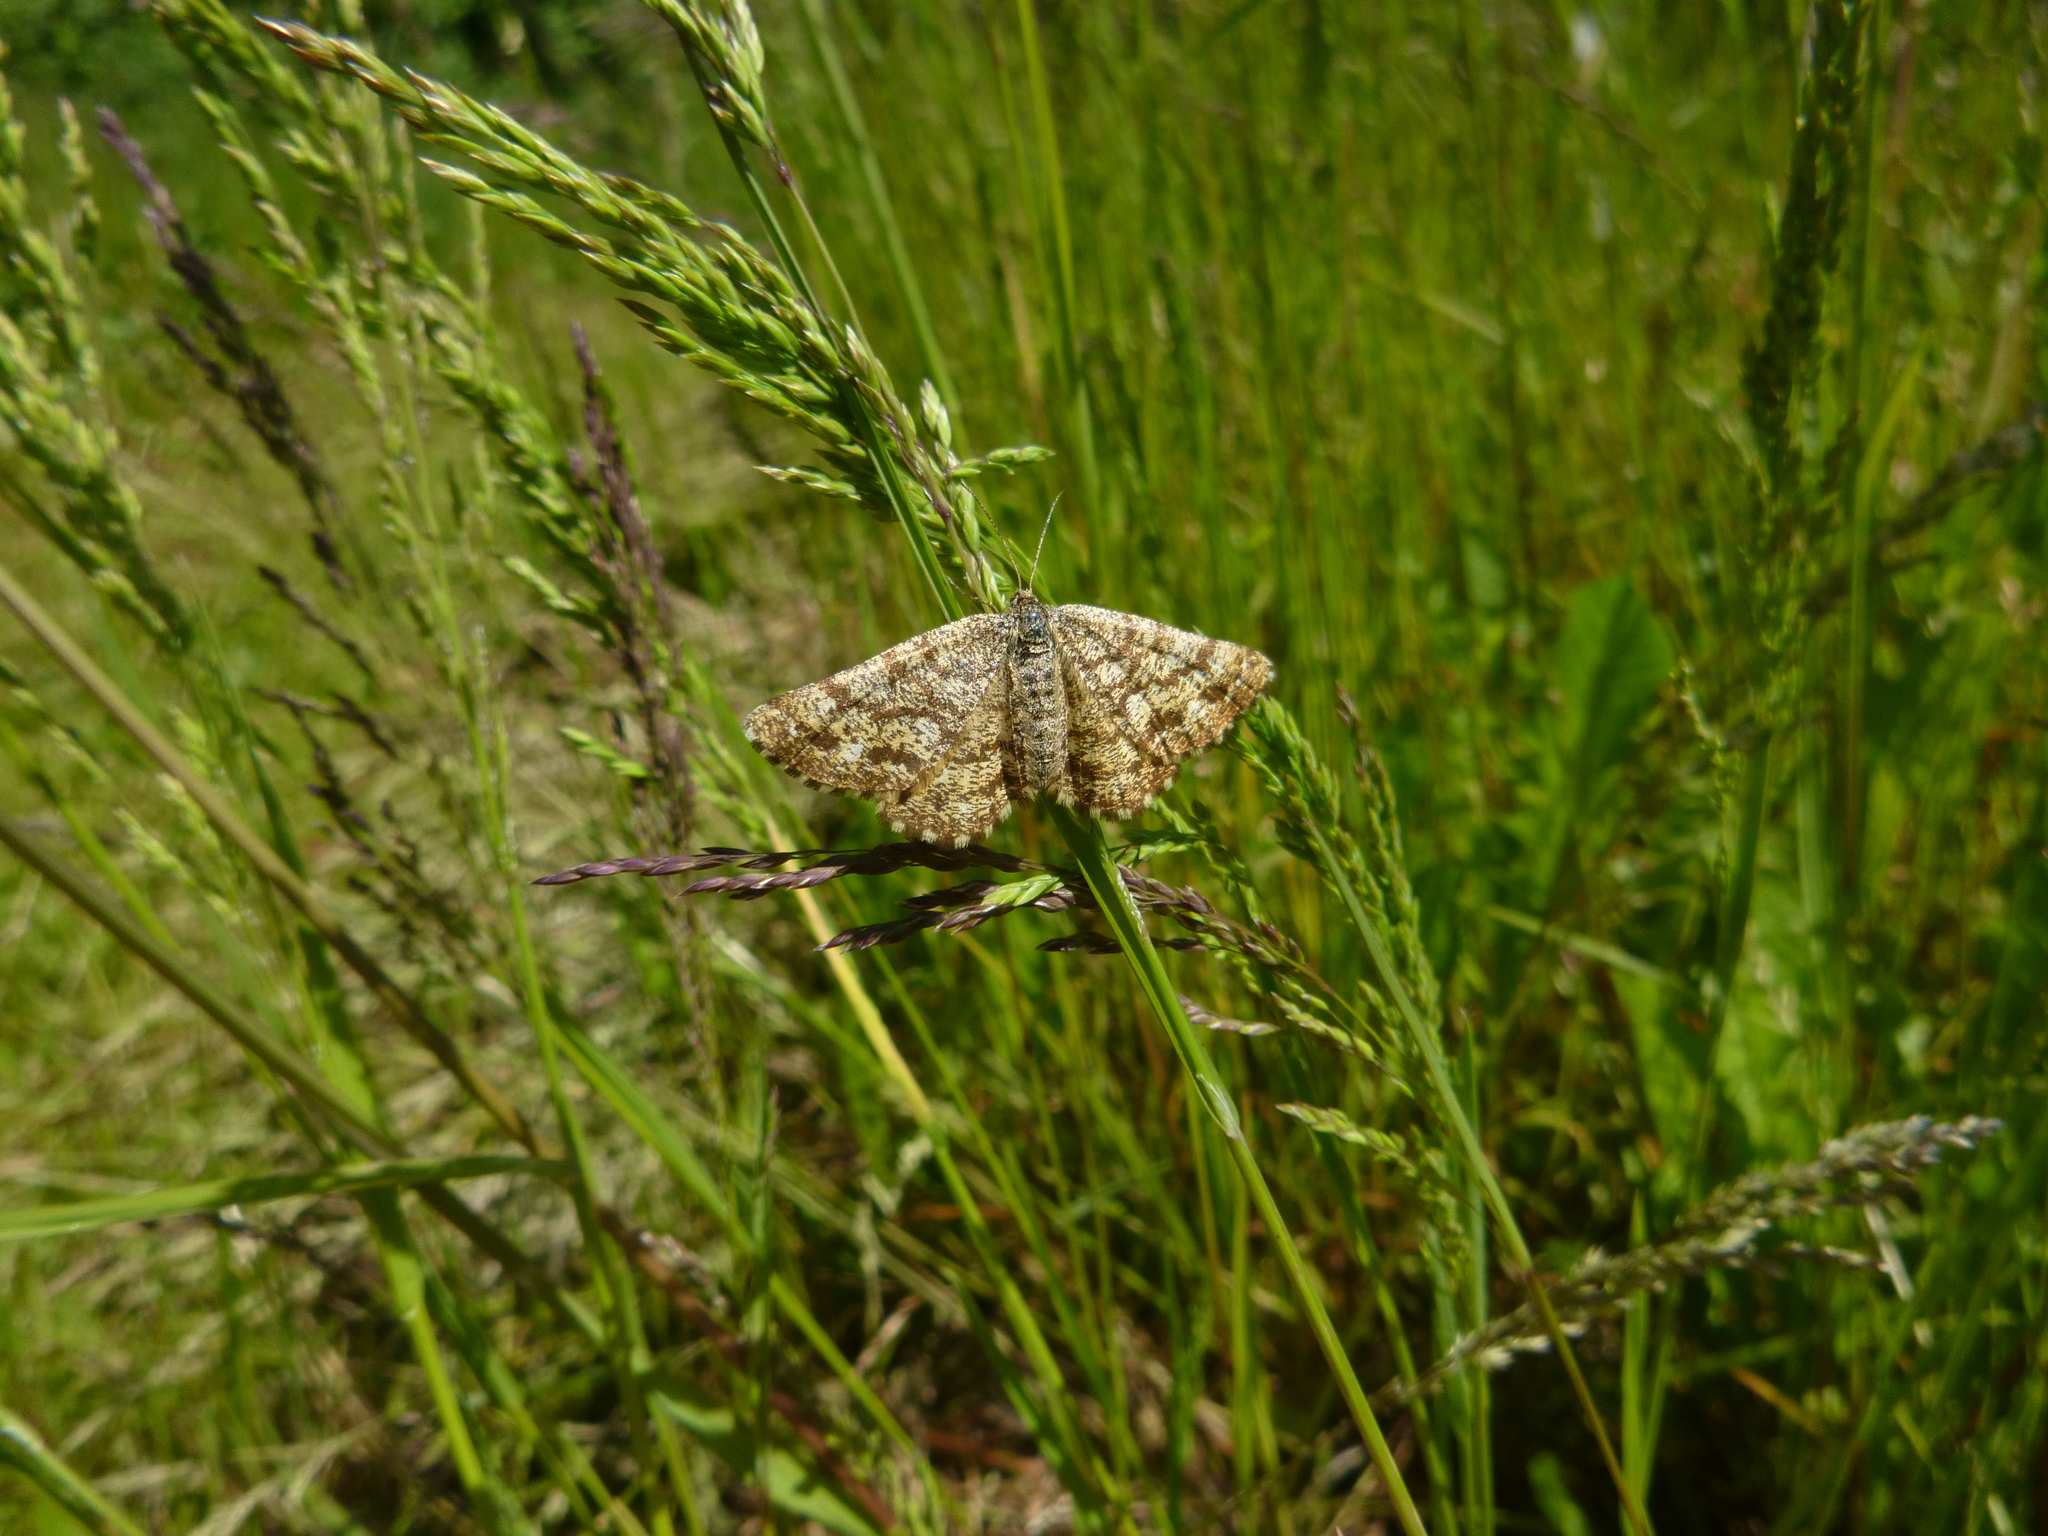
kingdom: Animalia
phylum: Arthropoda
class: Insecta
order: Lepidoptera
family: Geometridae
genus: Ematurga
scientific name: Ematurga atomaria
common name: Common heath
